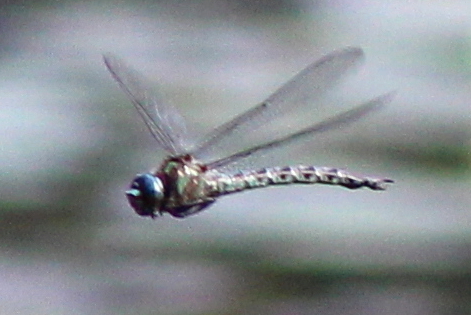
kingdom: Animalia
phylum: Arthropoda
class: Insecta
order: Odonata
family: Aeshnidae
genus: Nasiaeschna
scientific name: Nasiaeschna pentacantha
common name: Cyrano darner
